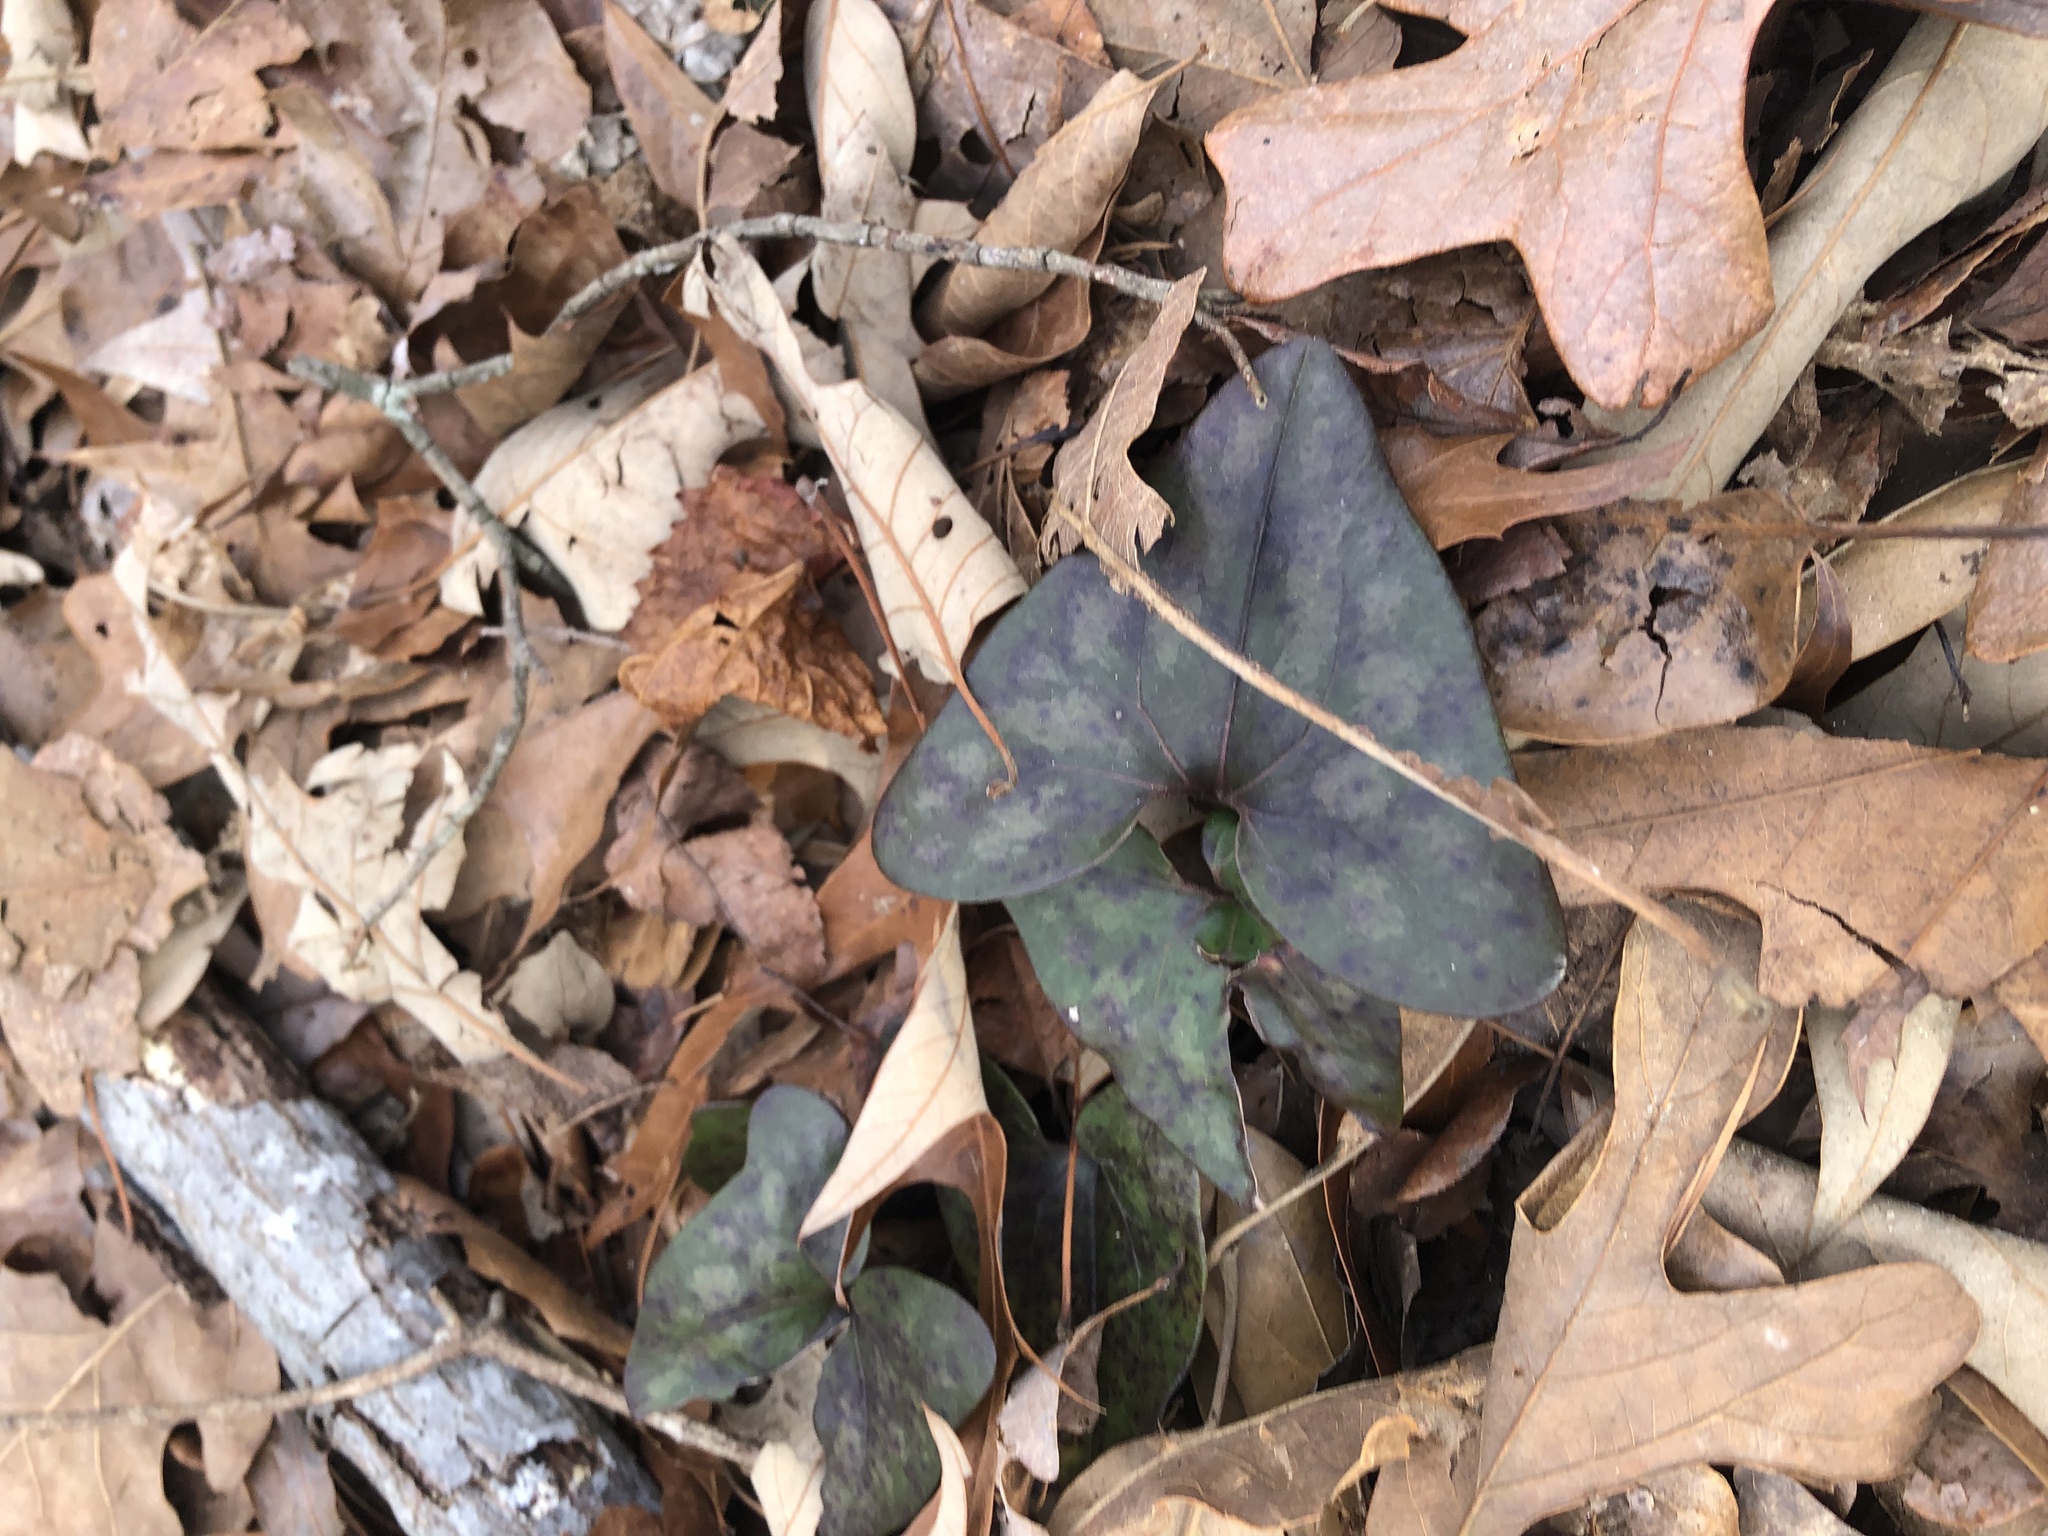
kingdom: Plantae
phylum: Tracheophyta
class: Magnoliopsida
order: Piperales
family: Aristolochiaceae
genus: Hexastylis
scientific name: Hexastylis arifolia
